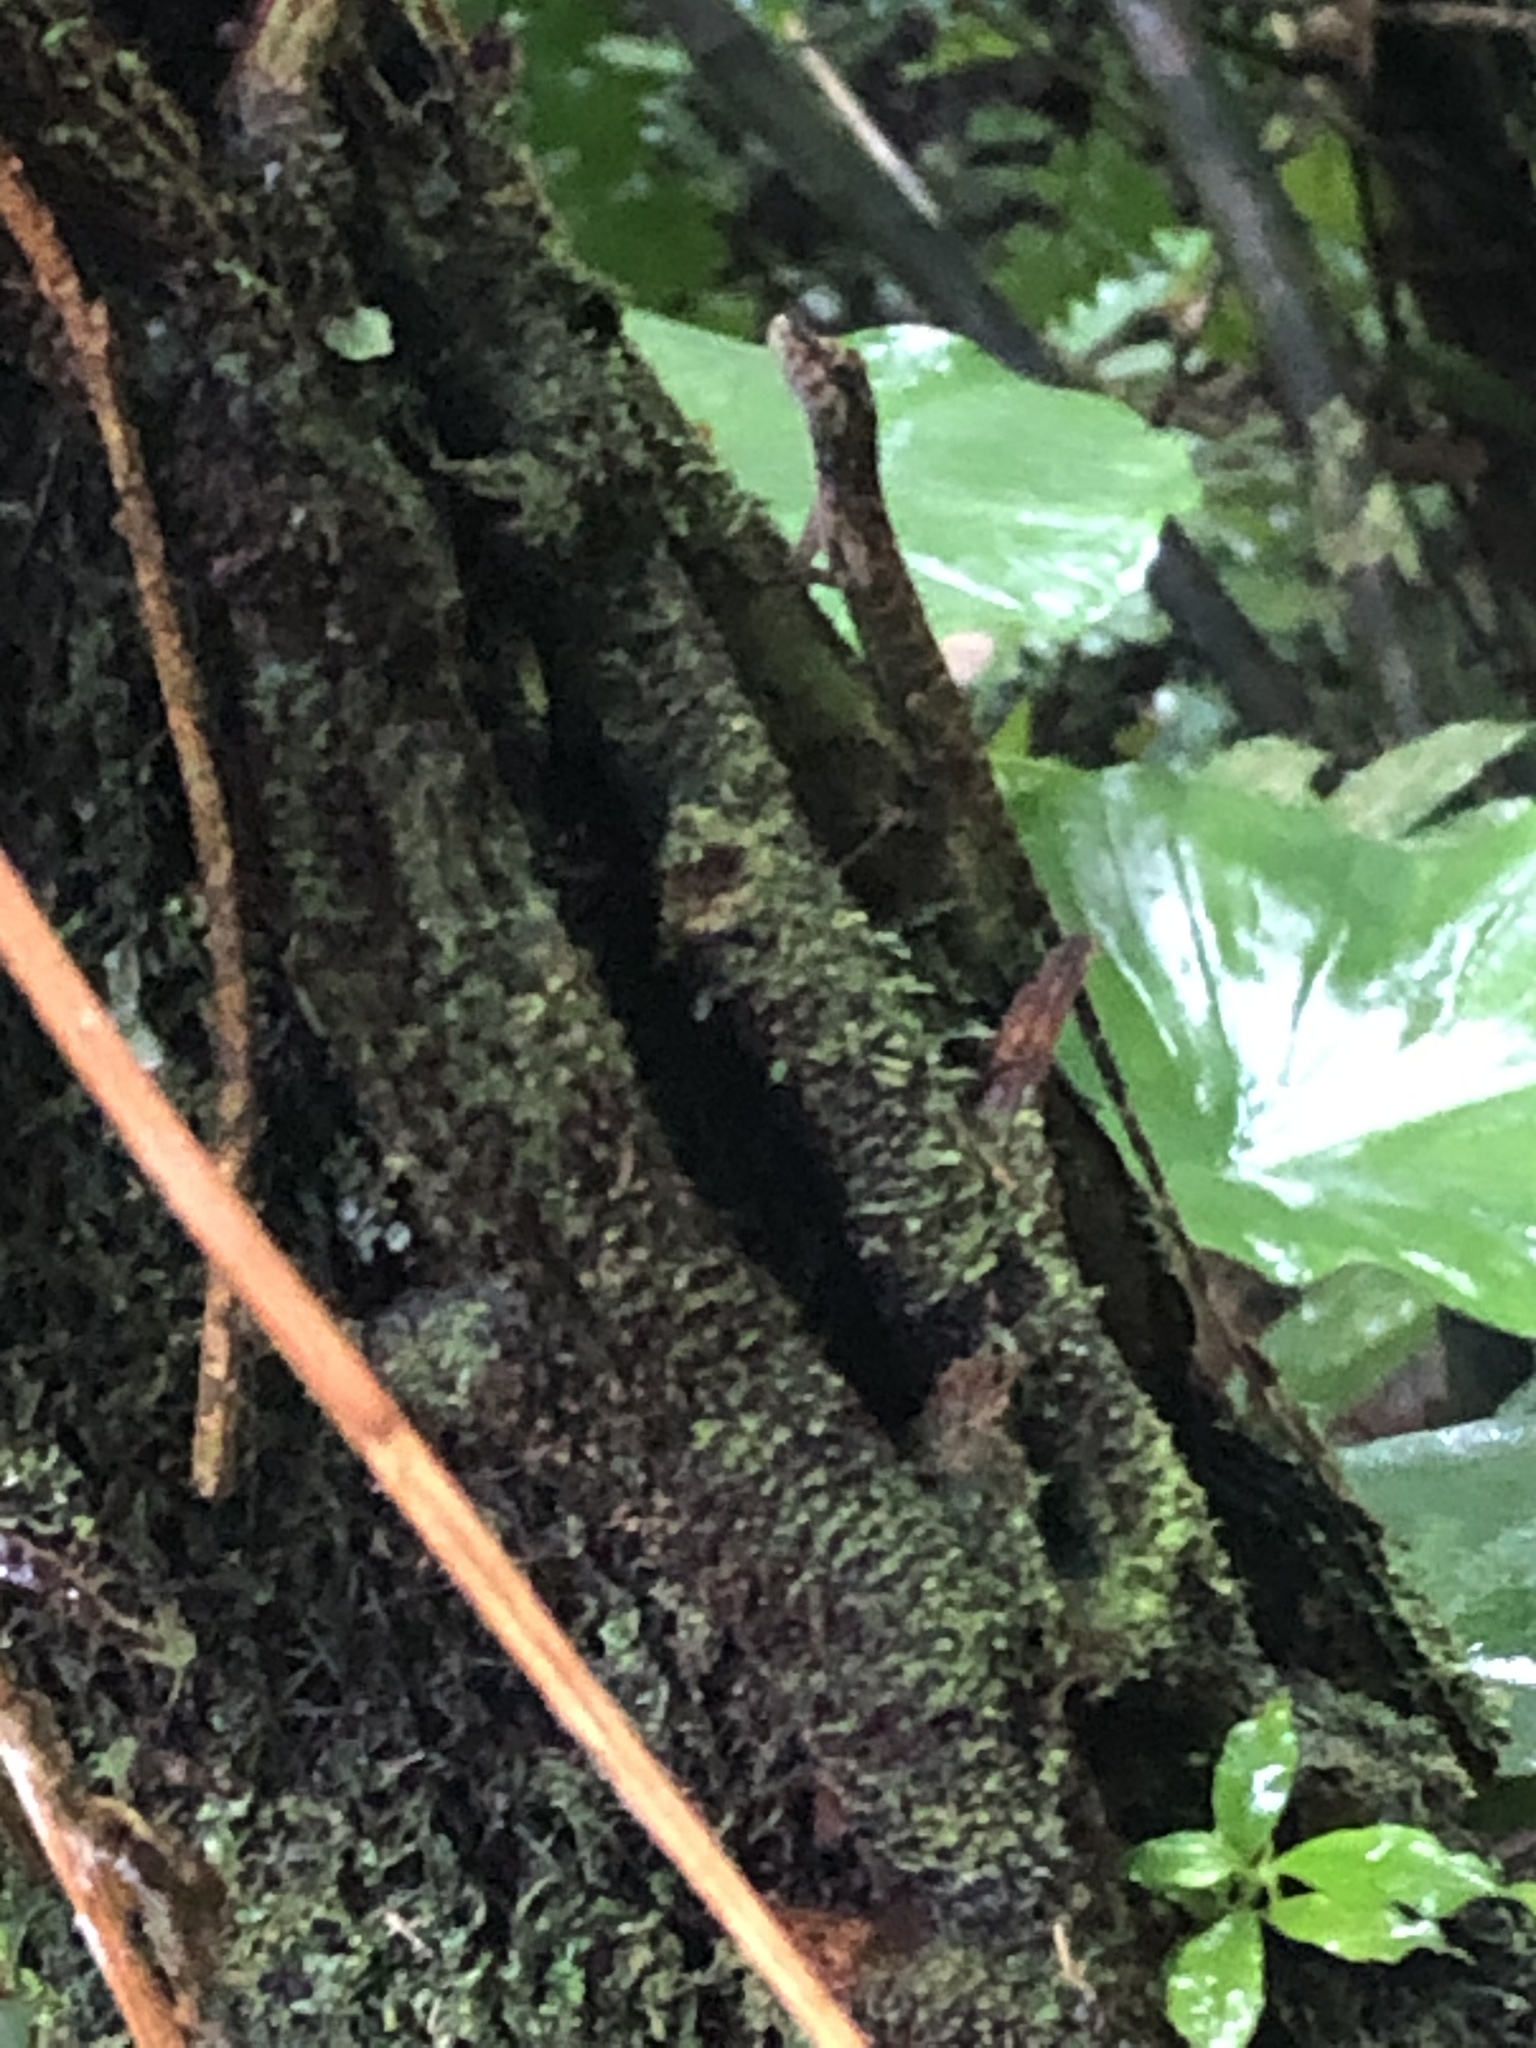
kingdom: Animalia
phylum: Chordata
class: Squamata
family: Dactyloidae
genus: Anolis
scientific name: Anolis fuscoauratus
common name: Brown-eared anole
